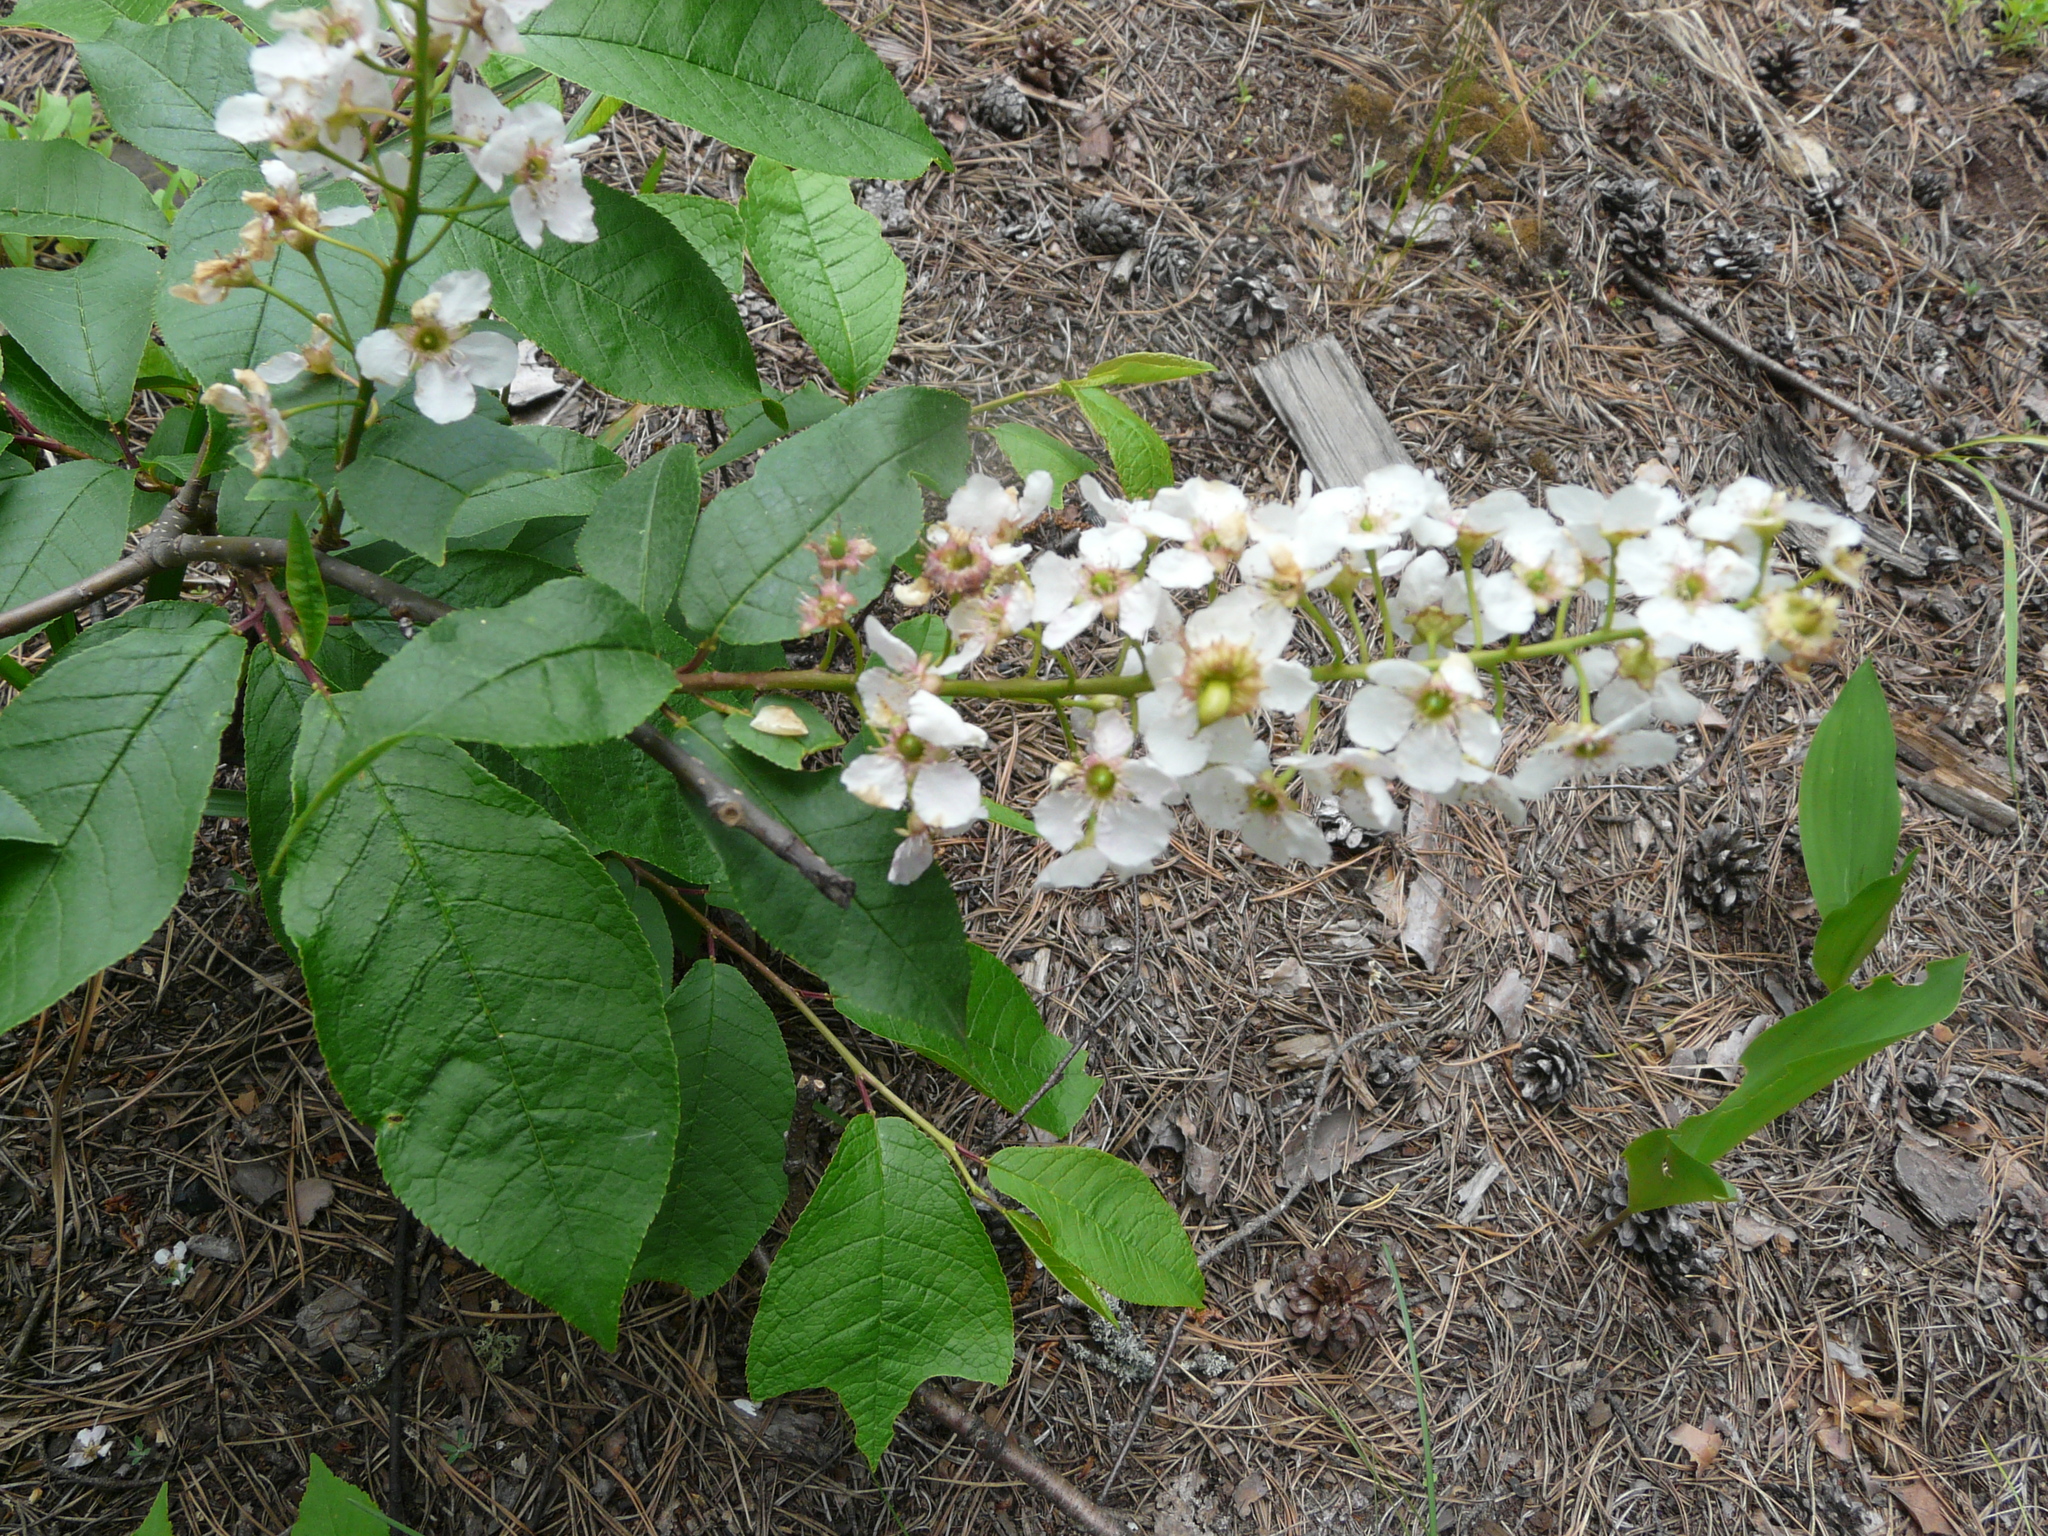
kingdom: Plantae
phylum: Tracheophyta
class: Magnoliopsida
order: Rosales
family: Rosaceae
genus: Prunus
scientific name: Prunus padus
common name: Bird cherry
